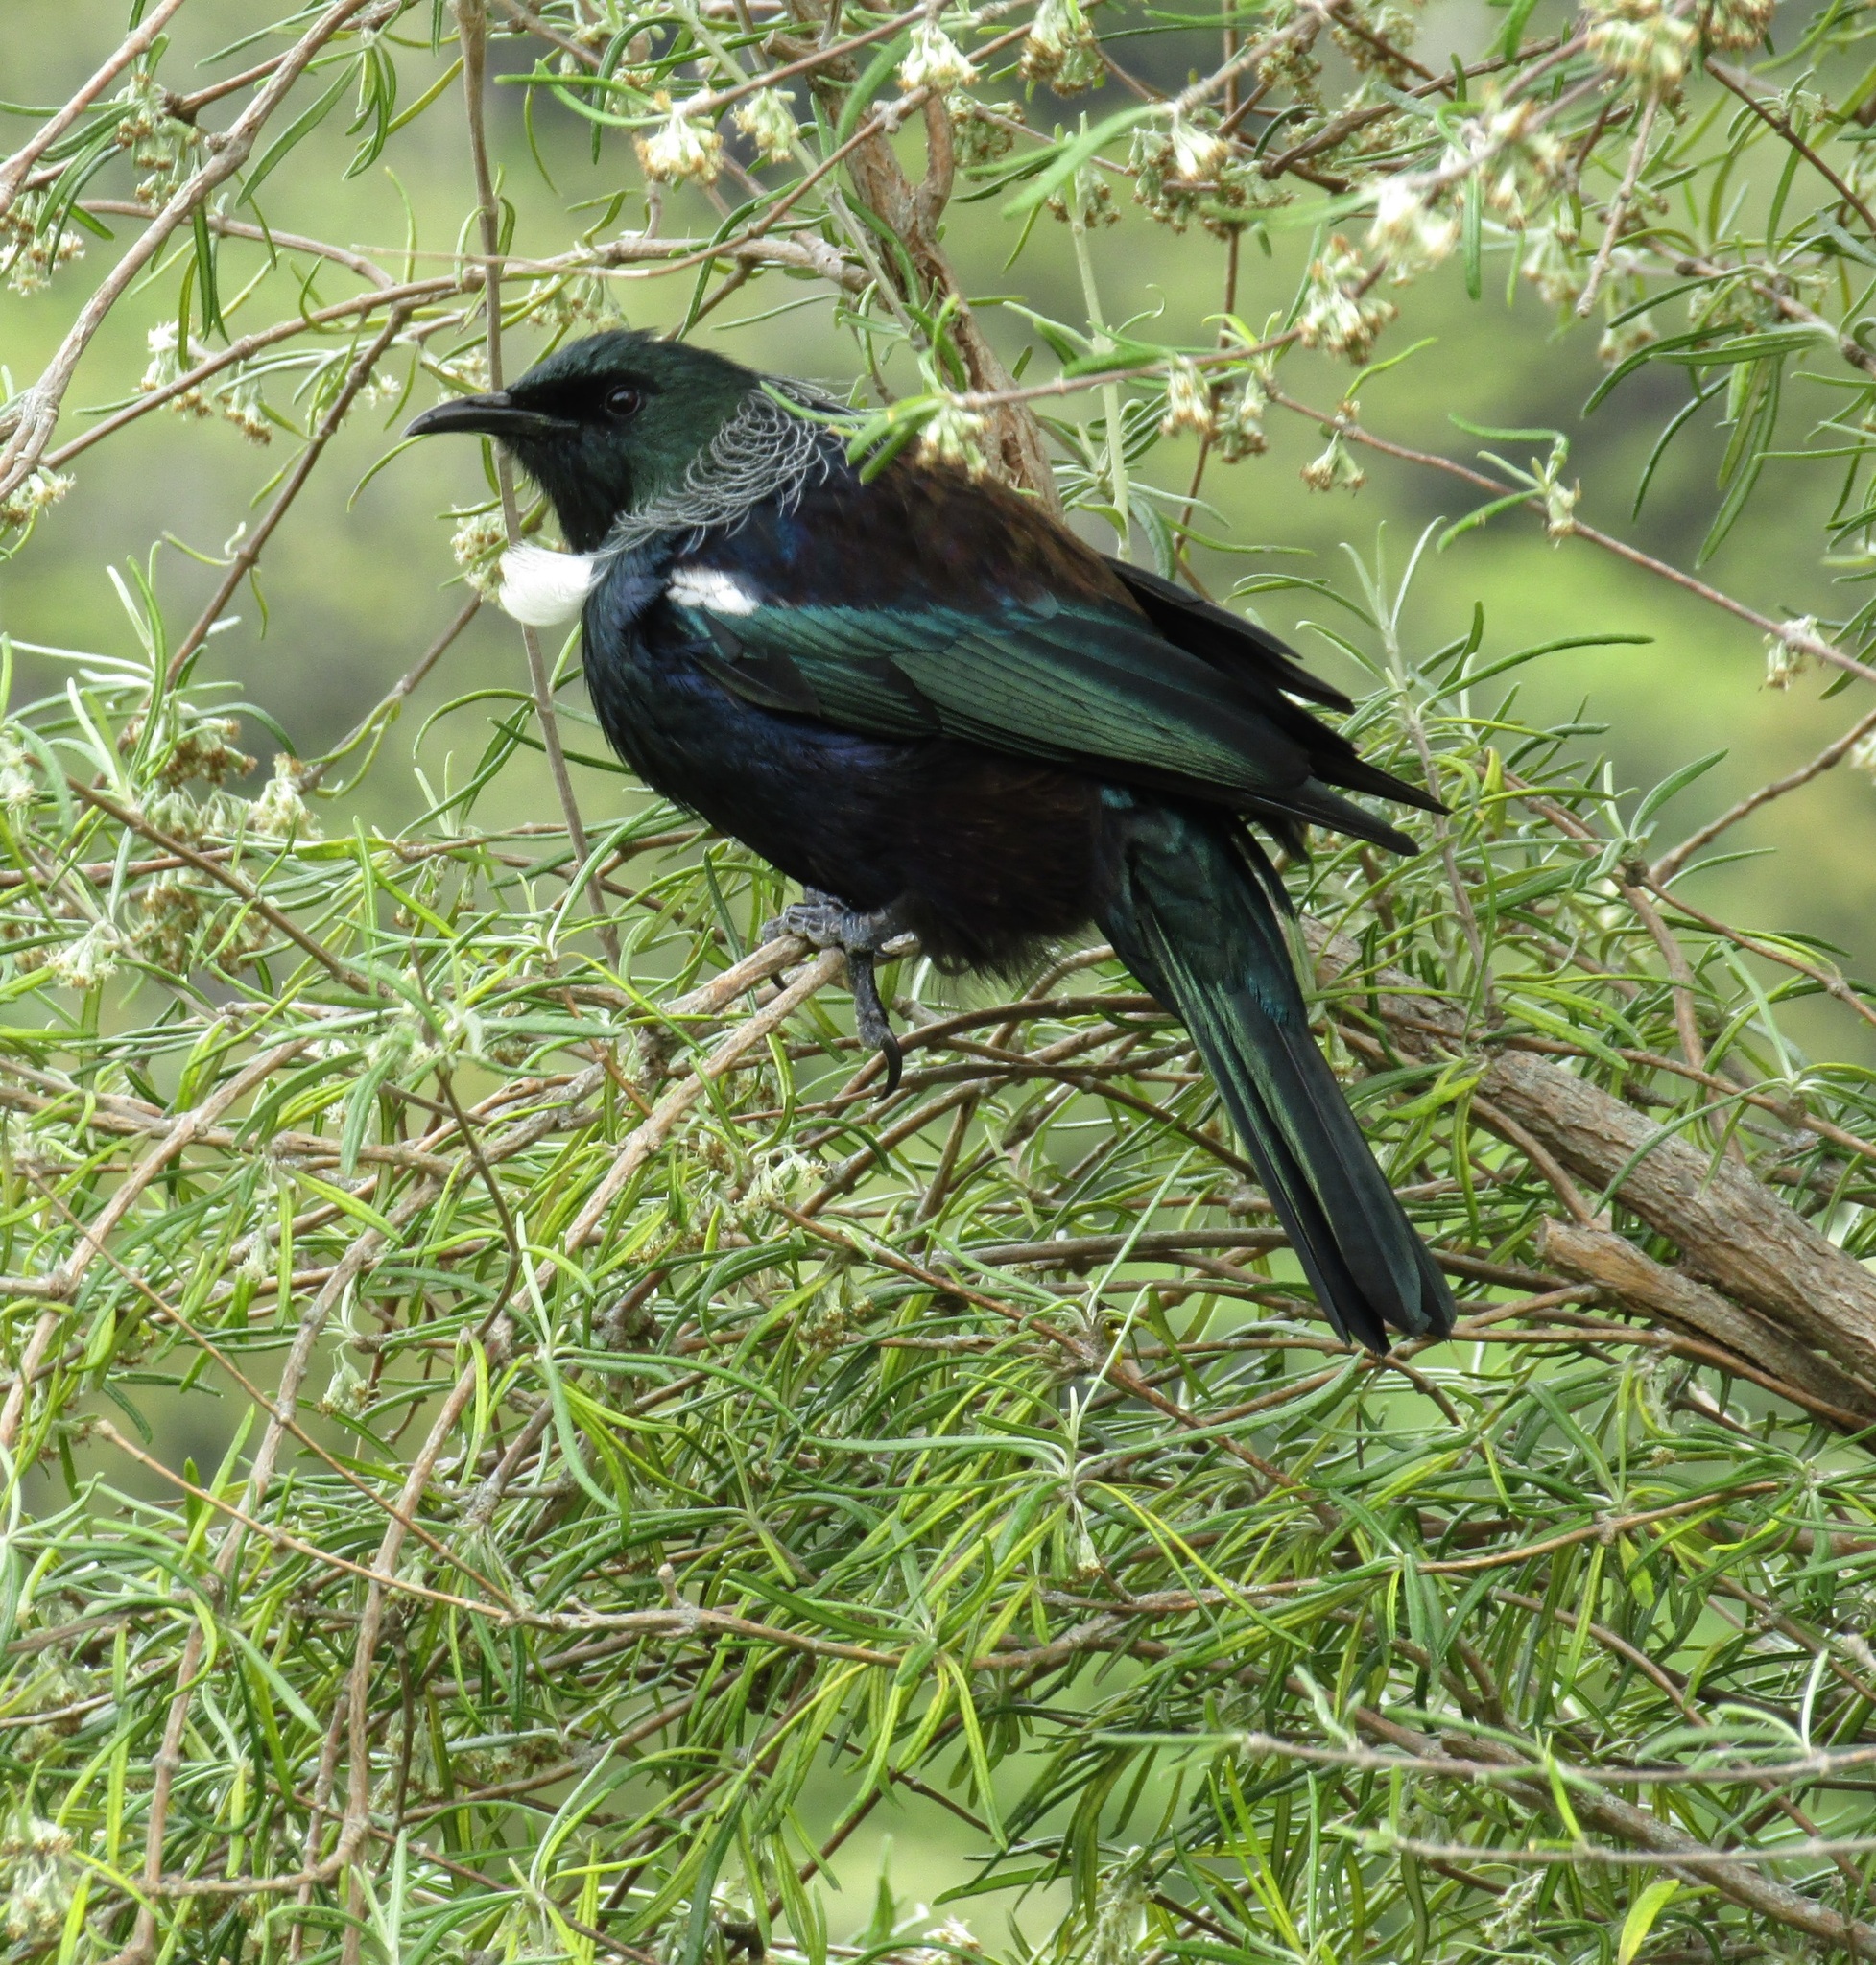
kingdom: Animalia
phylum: Chordata
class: Aves
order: Passeriformes
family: Meliphagidae
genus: Prosthemadera
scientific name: Prosthemadera novaeseelandiae
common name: Tui
